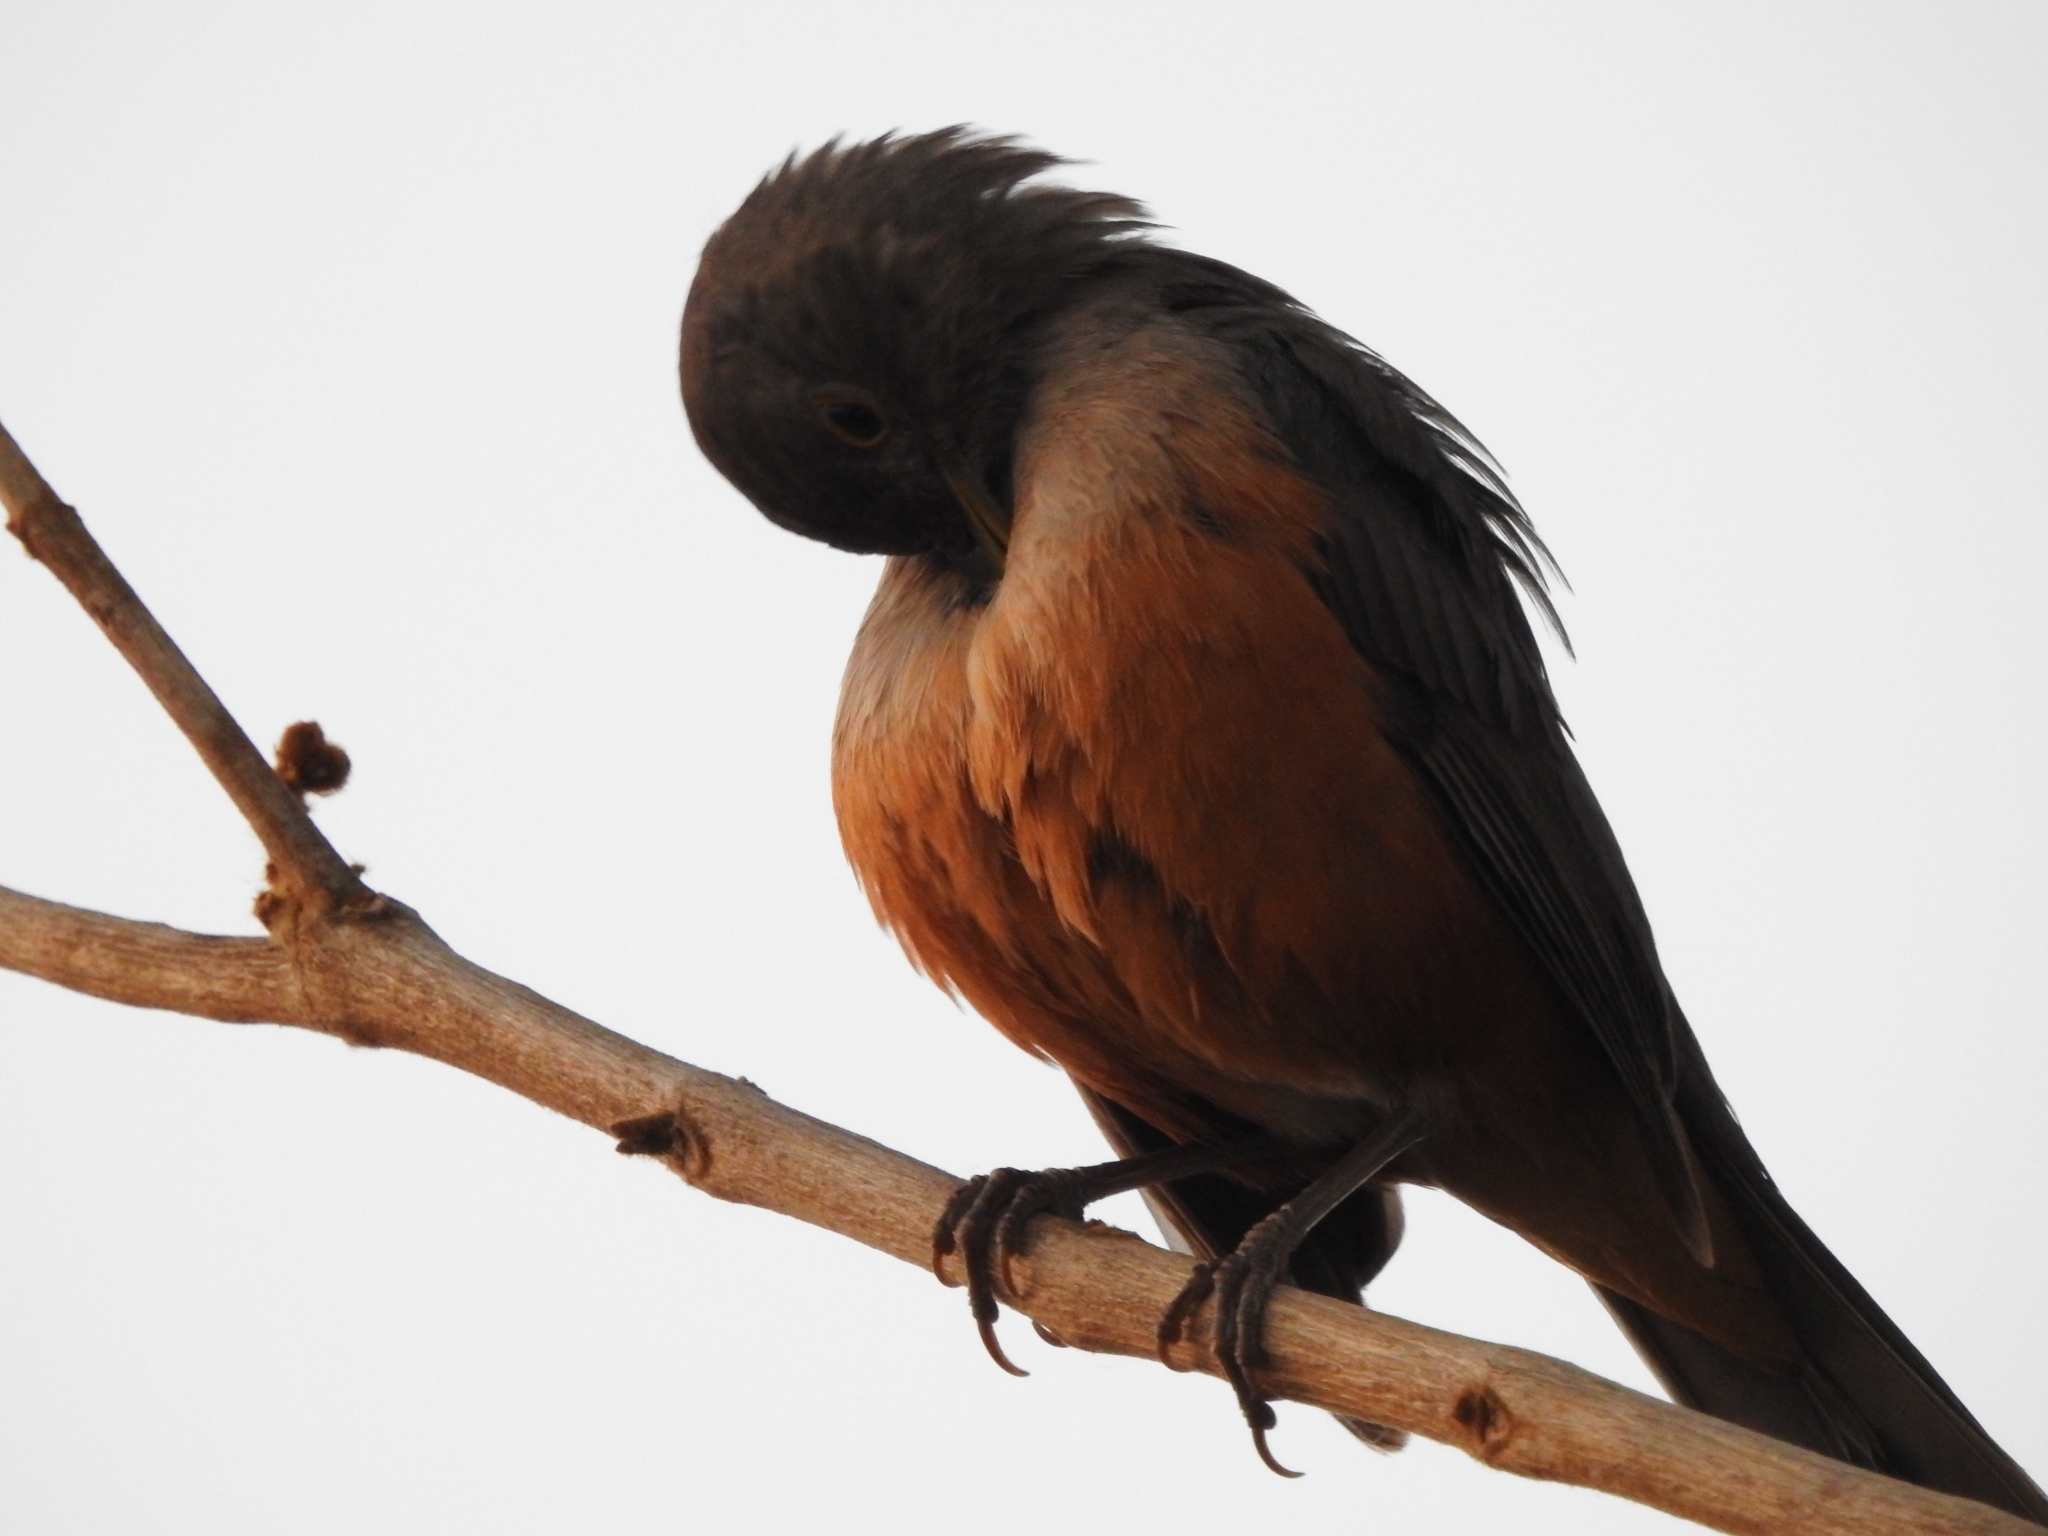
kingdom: Animalia
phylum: Chordata
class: Aves
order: Passeriformes
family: Turdidae
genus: Turdus
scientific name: Turdus rufiventris
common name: Rufous-bellied thrush
